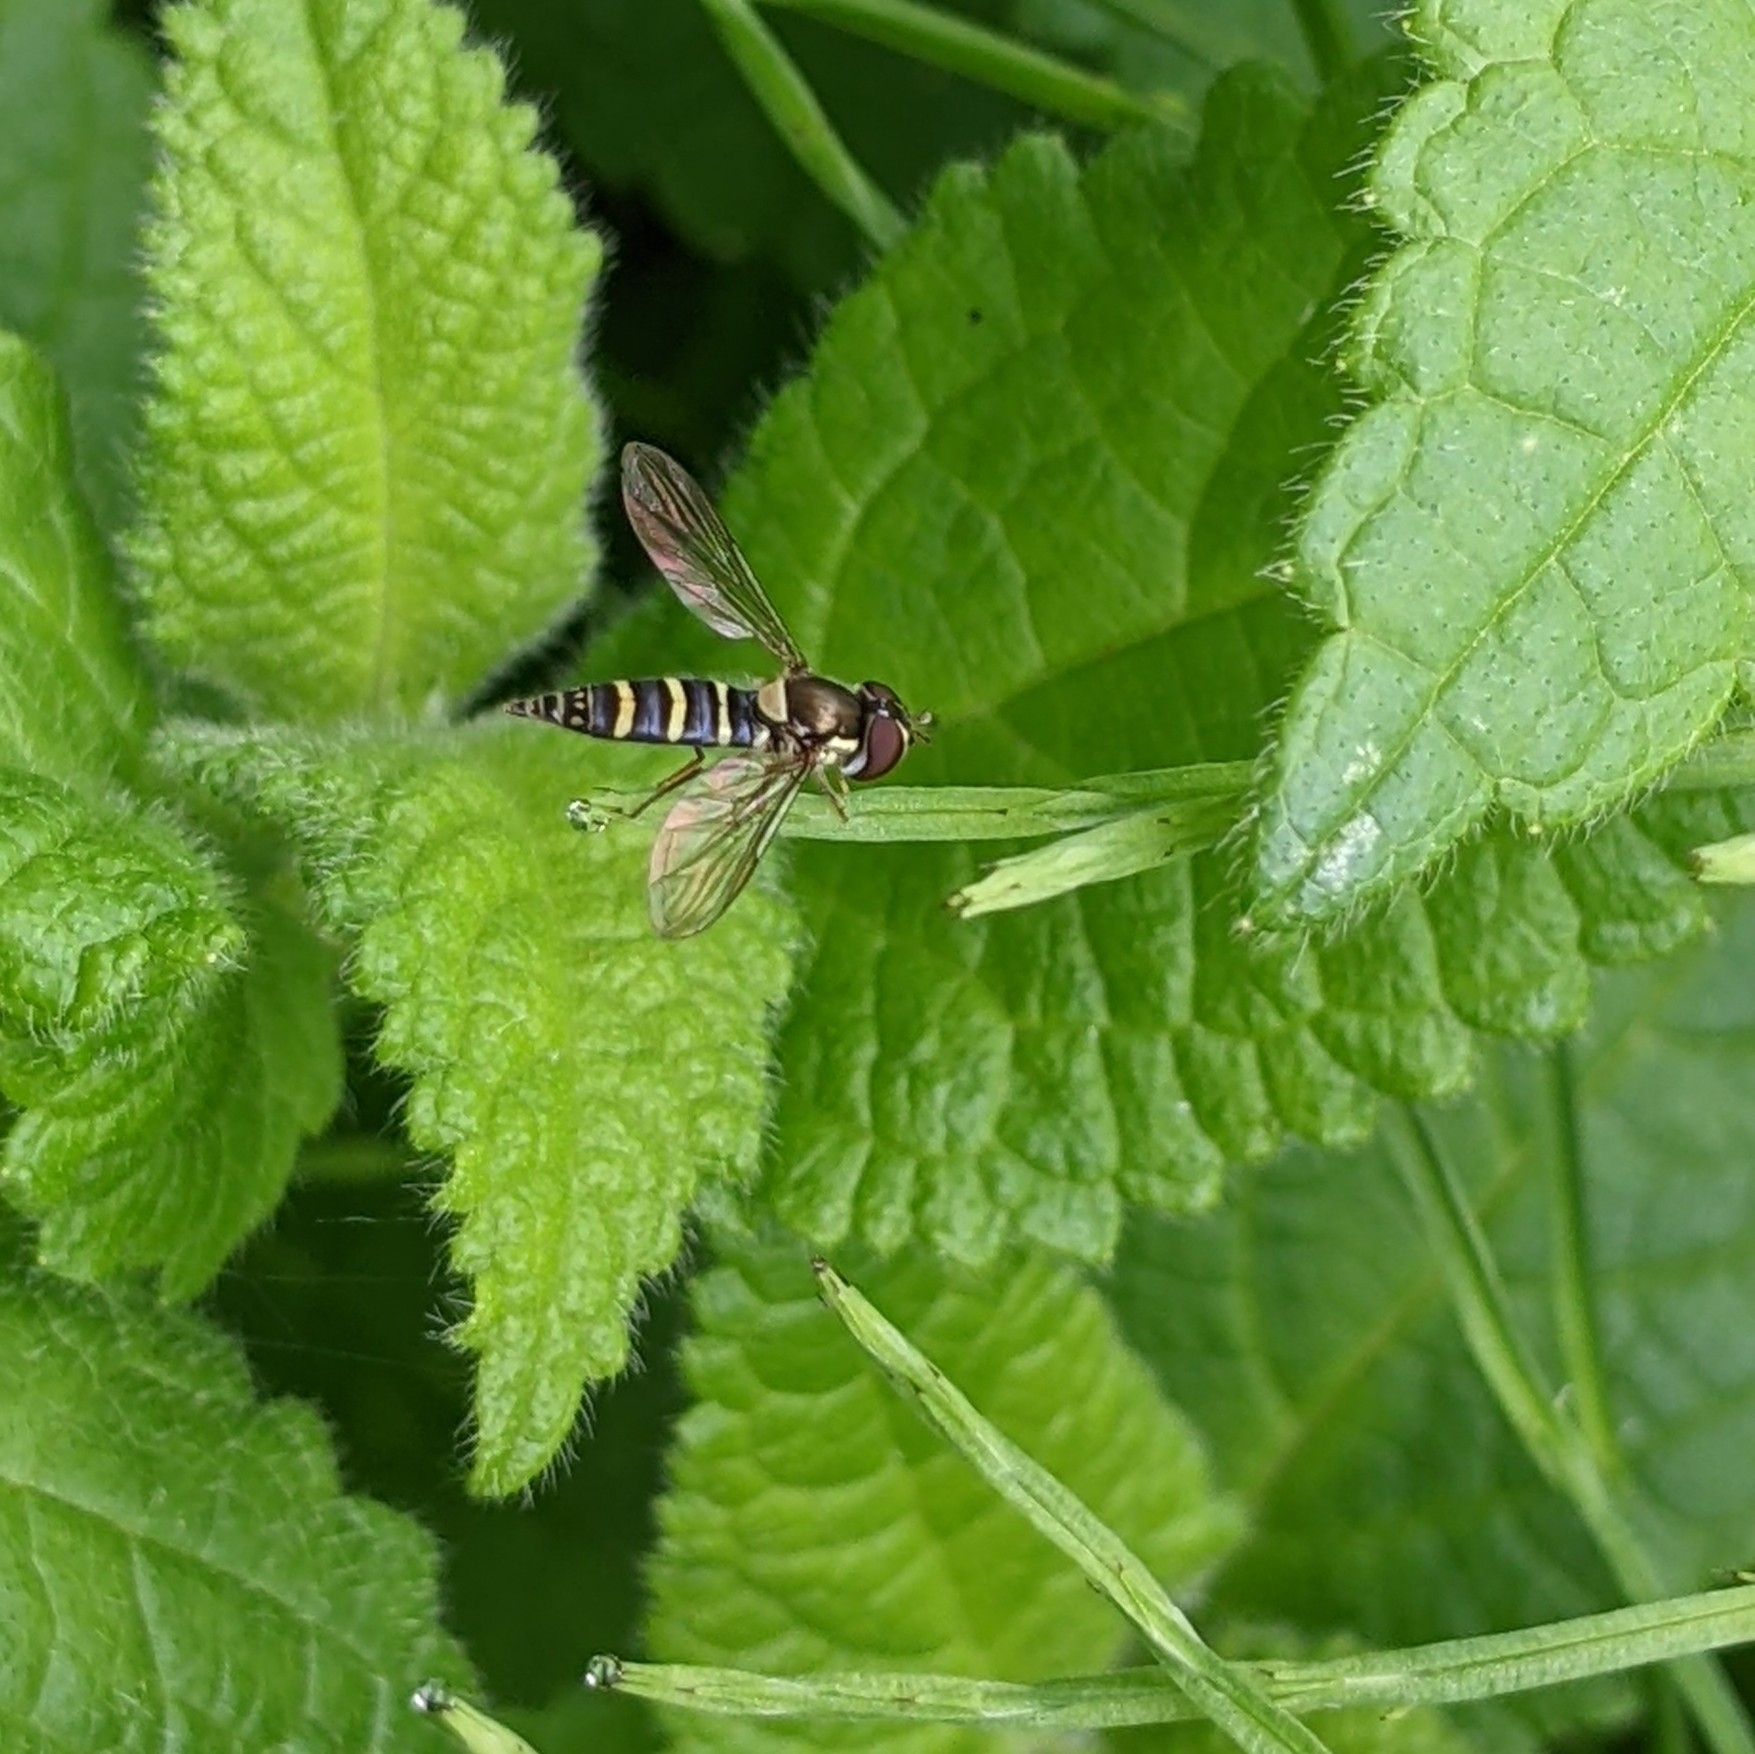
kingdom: Animalia
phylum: Arthropoda
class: Insecta
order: Diptera
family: Syrphidae
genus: Fazia
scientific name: Fazia micrura
